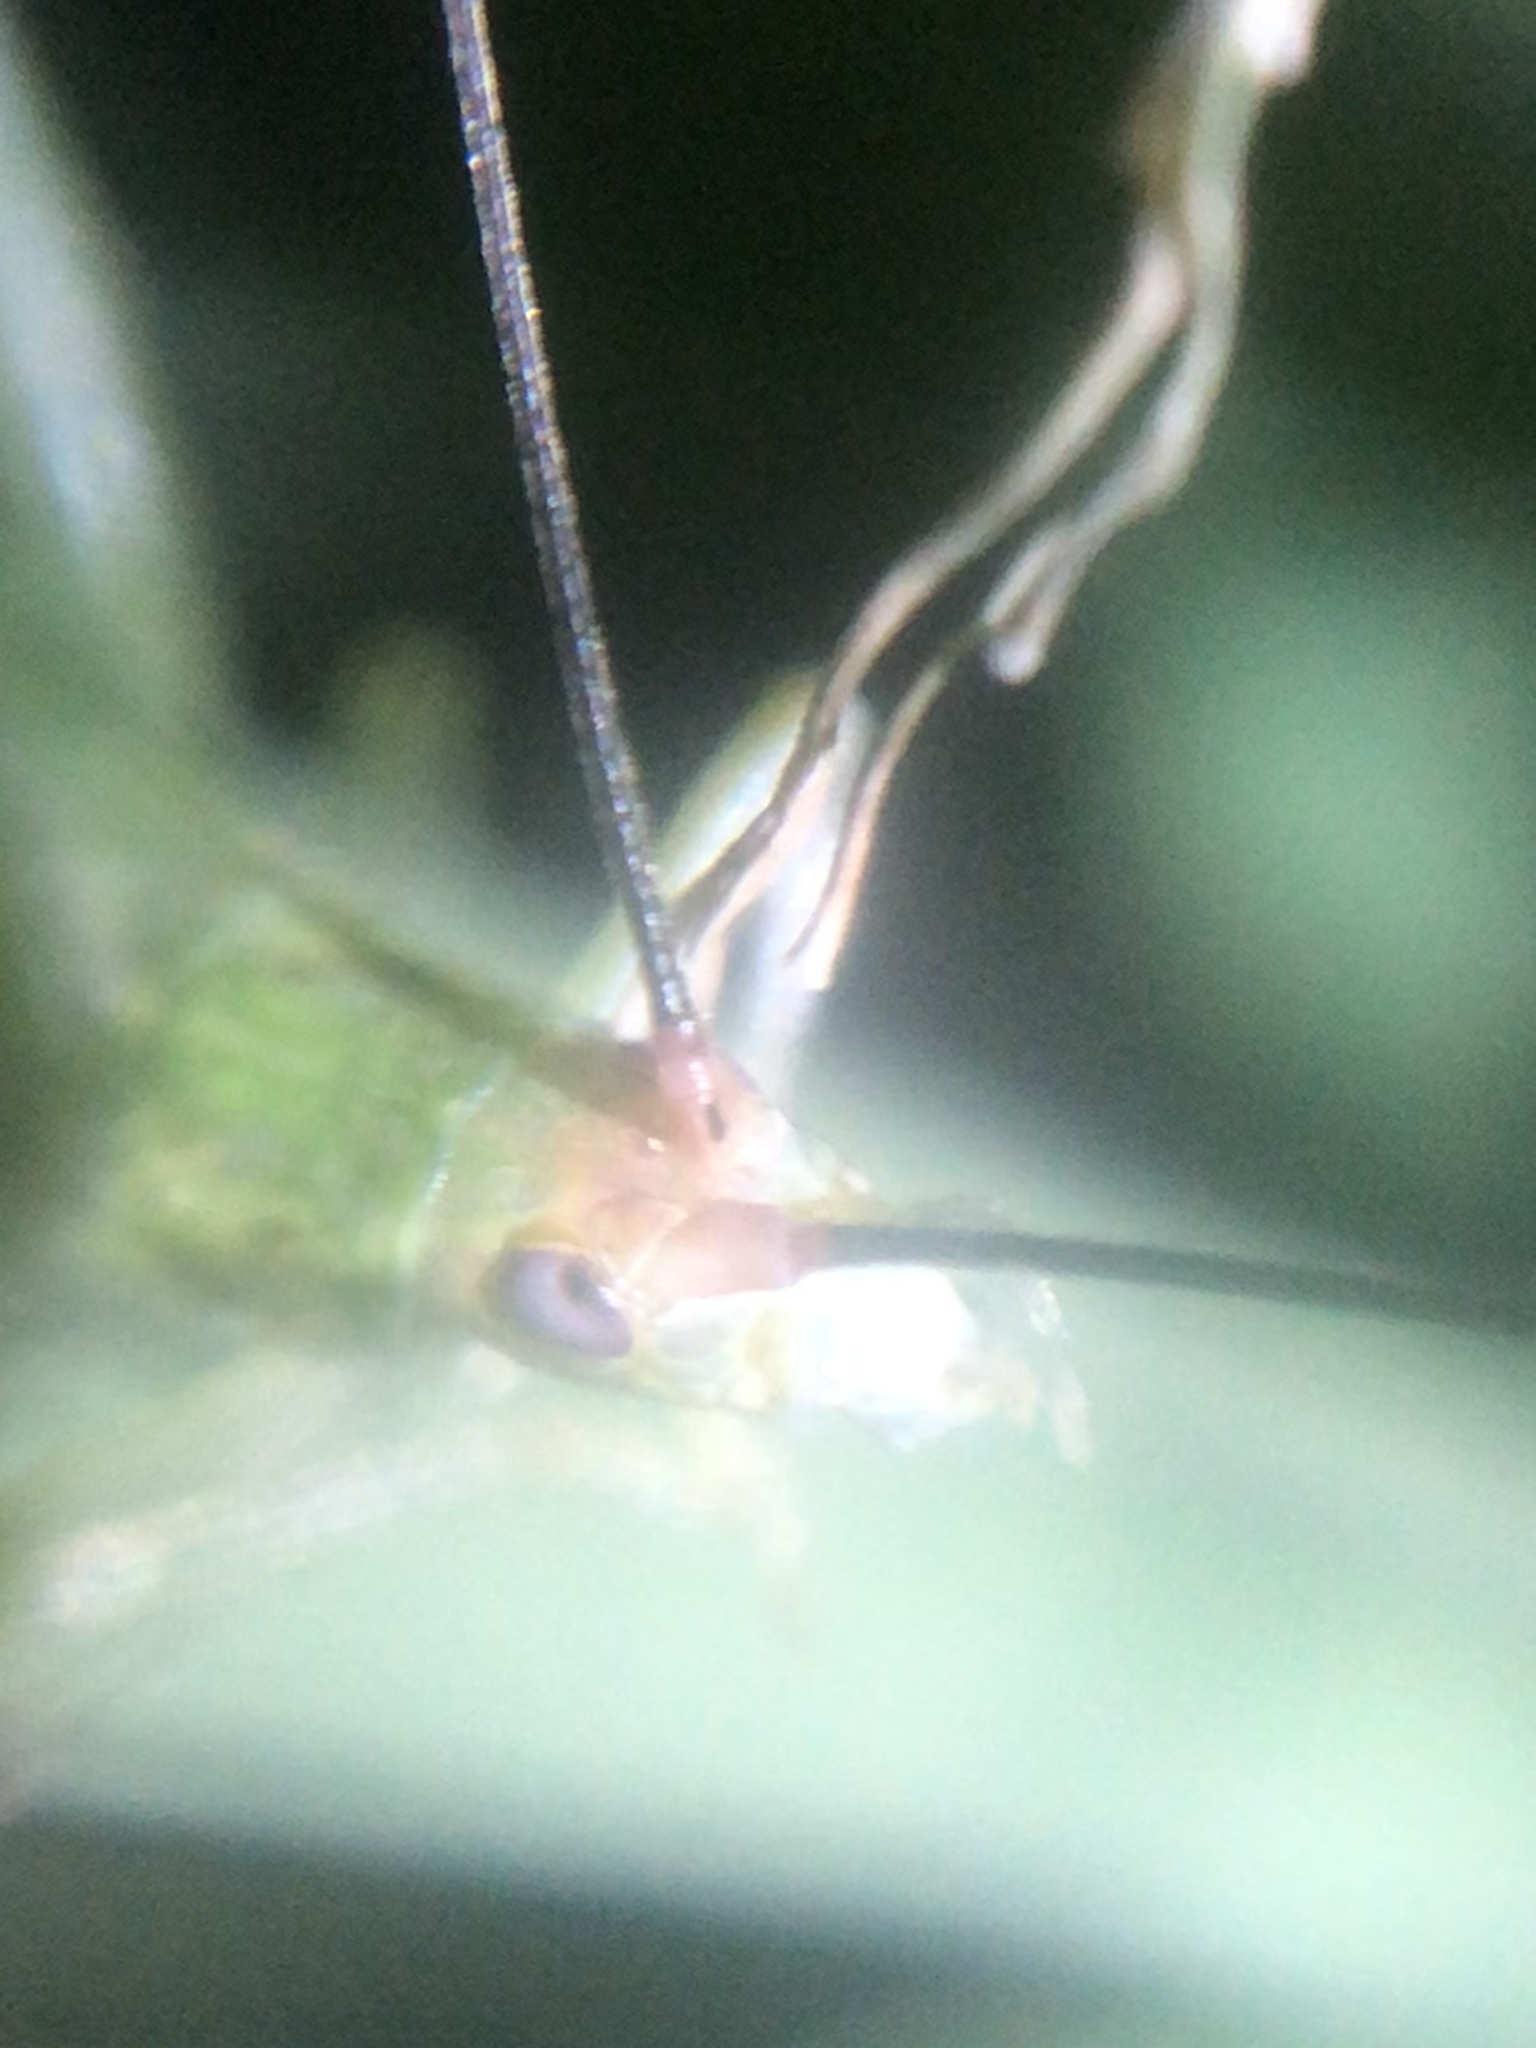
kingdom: Animalia
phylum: Arthropoda
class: Insecta
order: Orthoptera
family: Gryllidae
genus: Oecanthus
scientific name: Oecanthus varicornis
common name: Different-horned tree cricket
